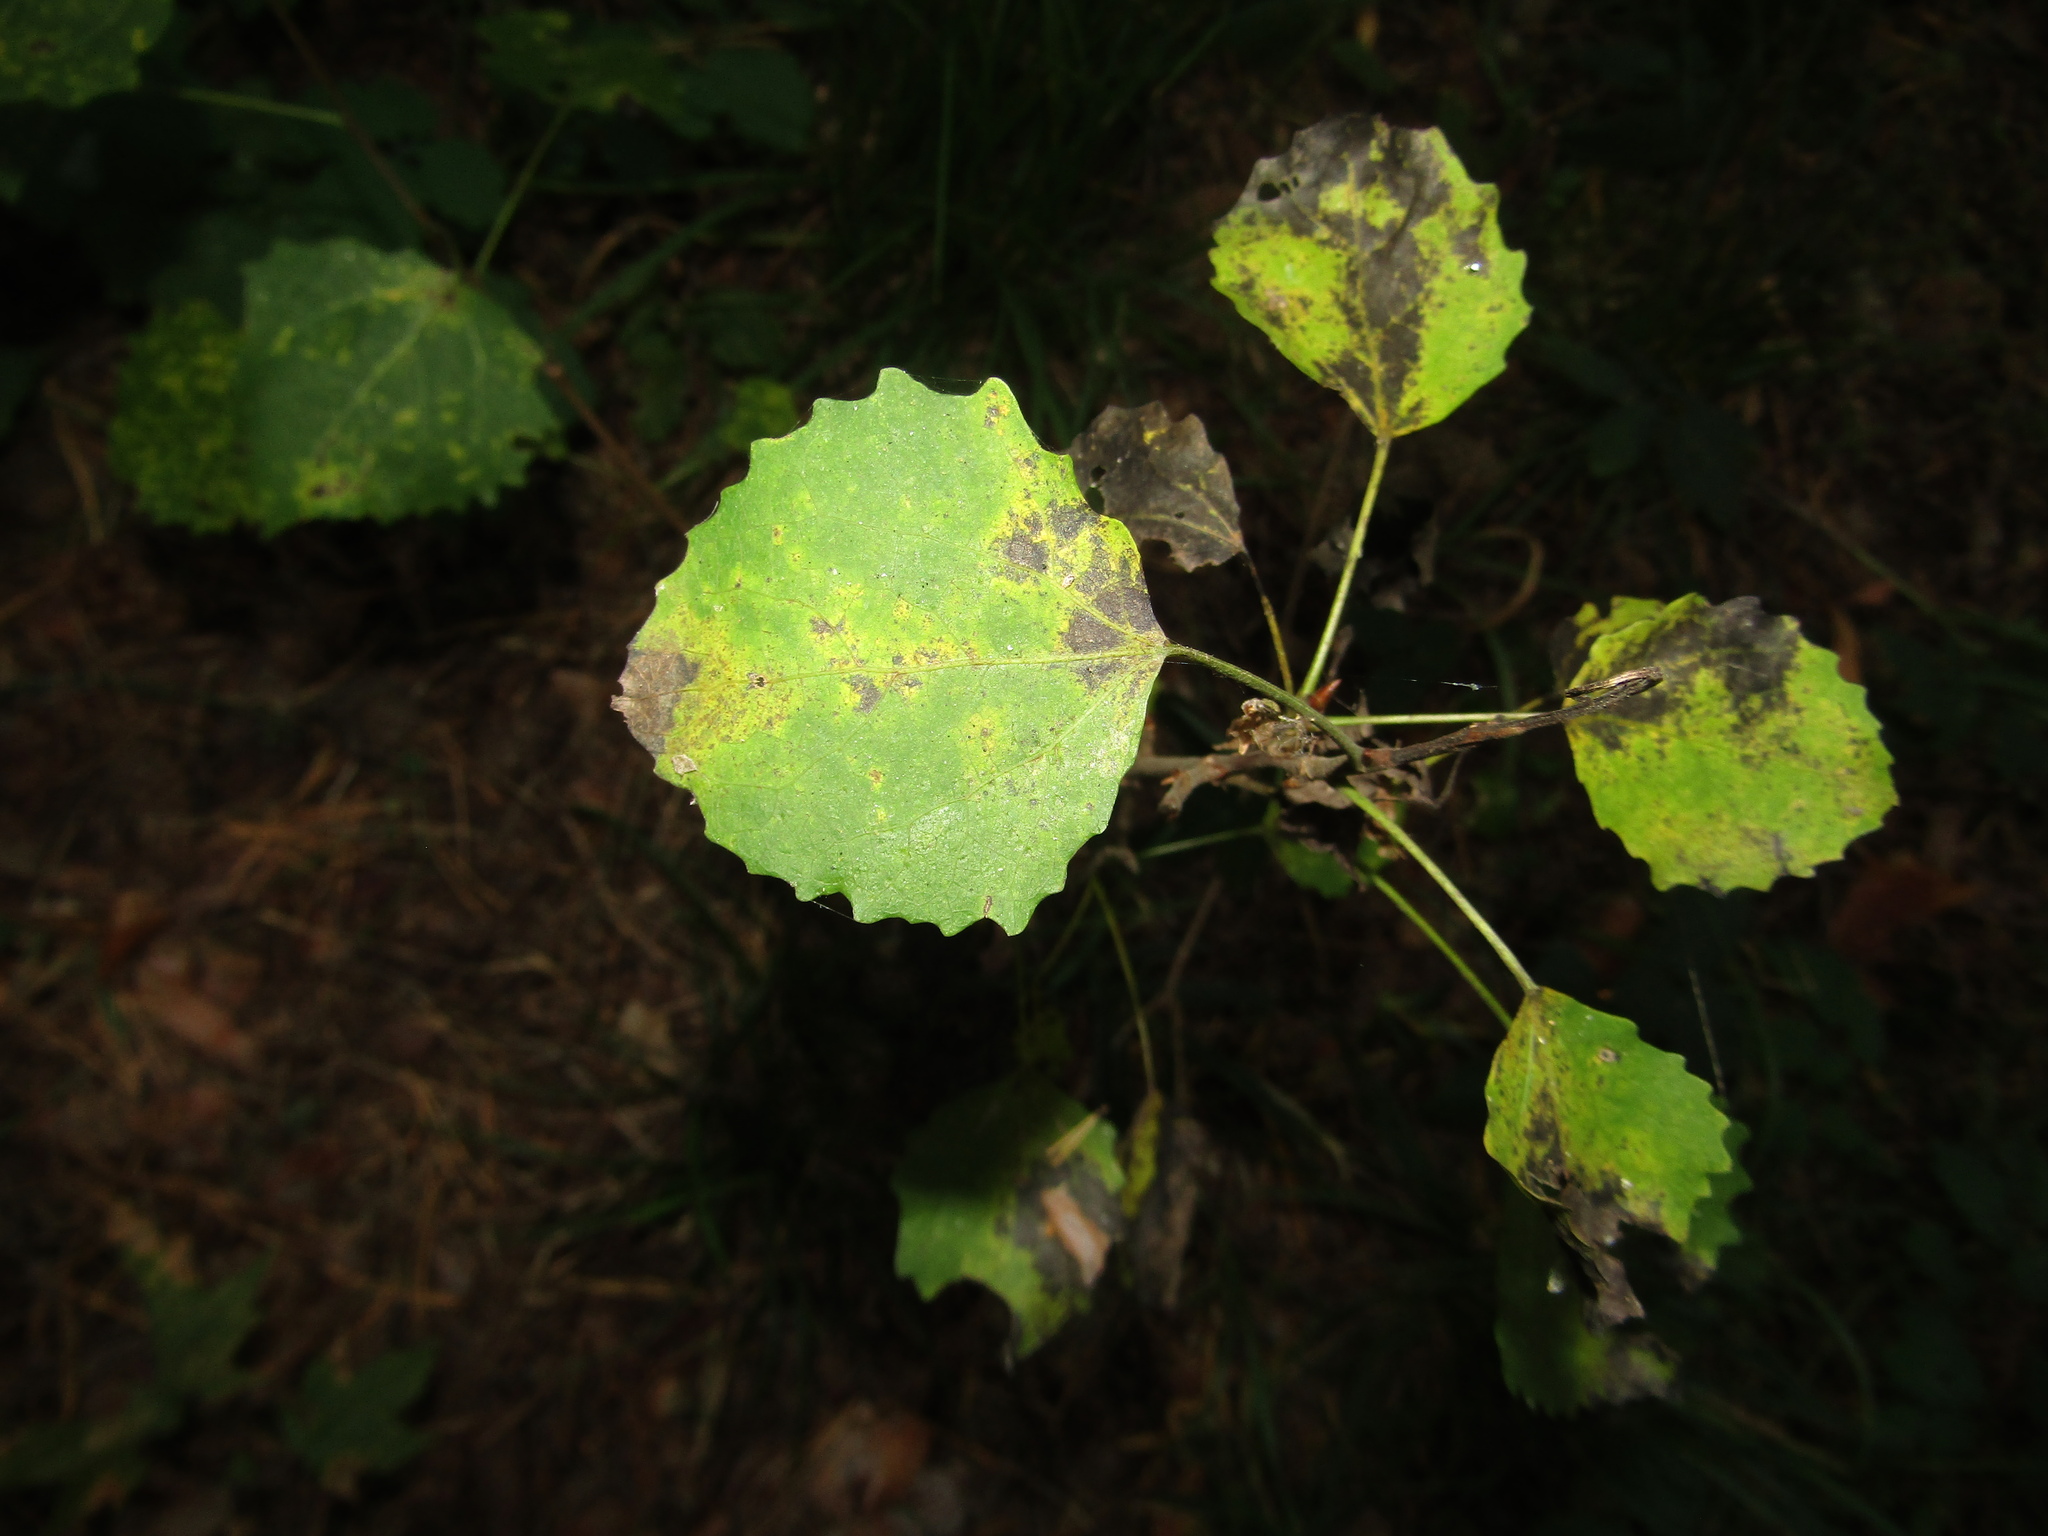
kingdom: Plantae
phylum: Tracheophyta
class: Magnoliopsida
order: Malpighiales
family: Salicaceae
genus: Populus
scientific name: Populus tremula
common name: European aspen
